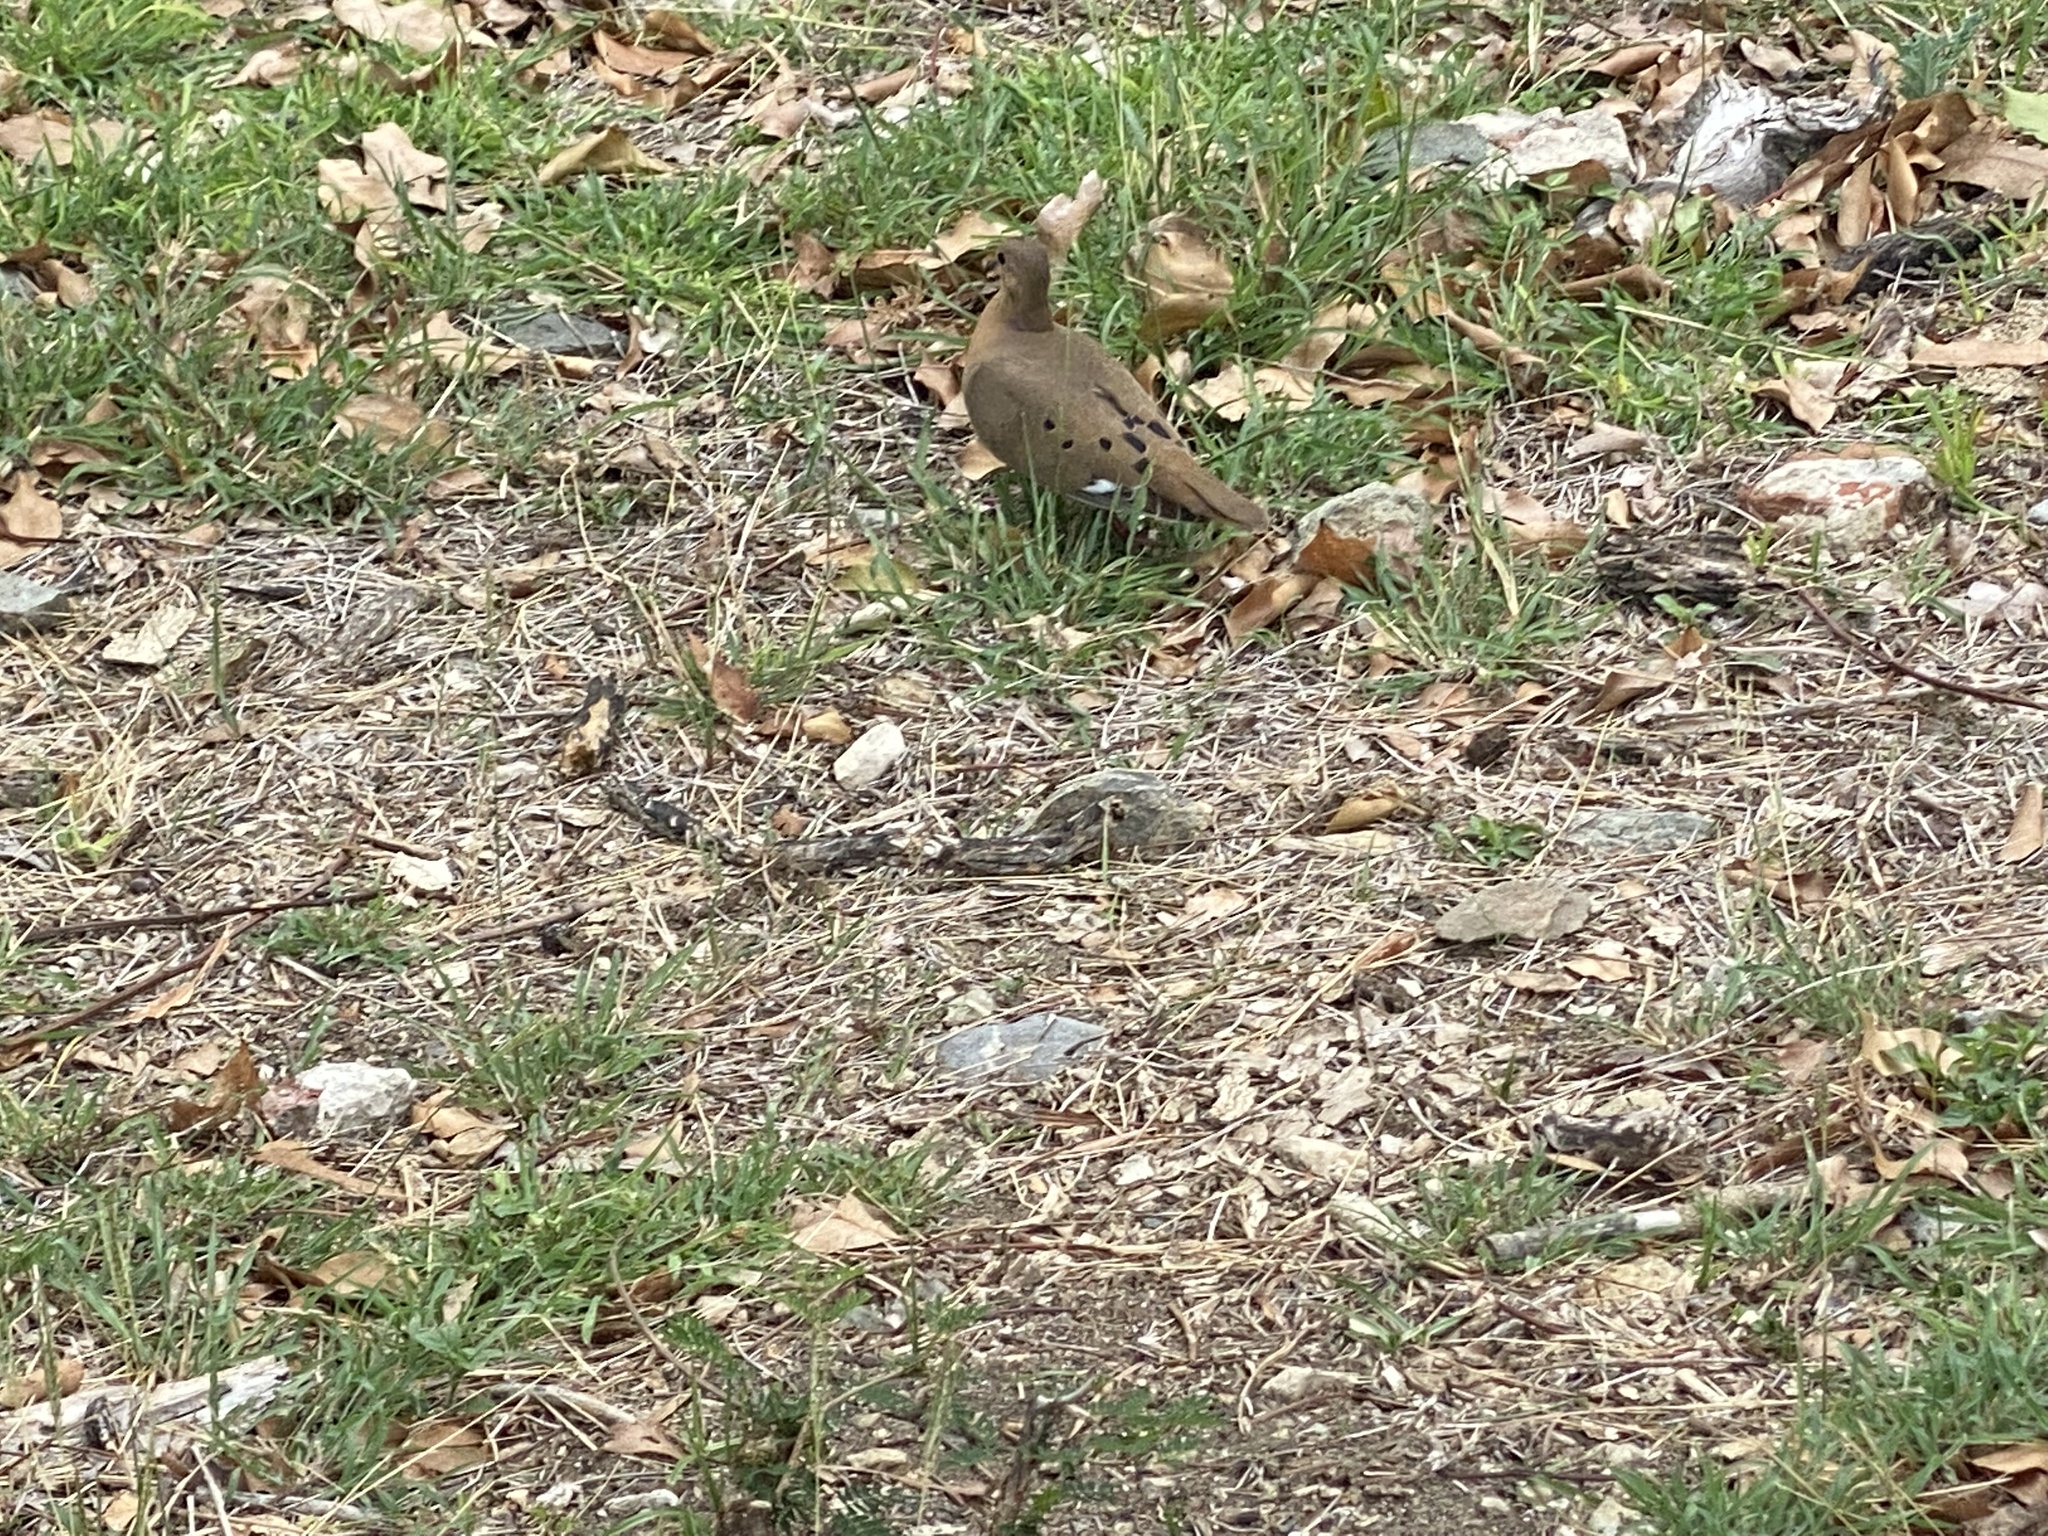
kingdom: Animalia
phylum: Chordata
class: Aves
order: Columbiformes
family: Columbidae
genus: Zenaida
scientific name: Zenaida aurita
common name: Zenaida dove
